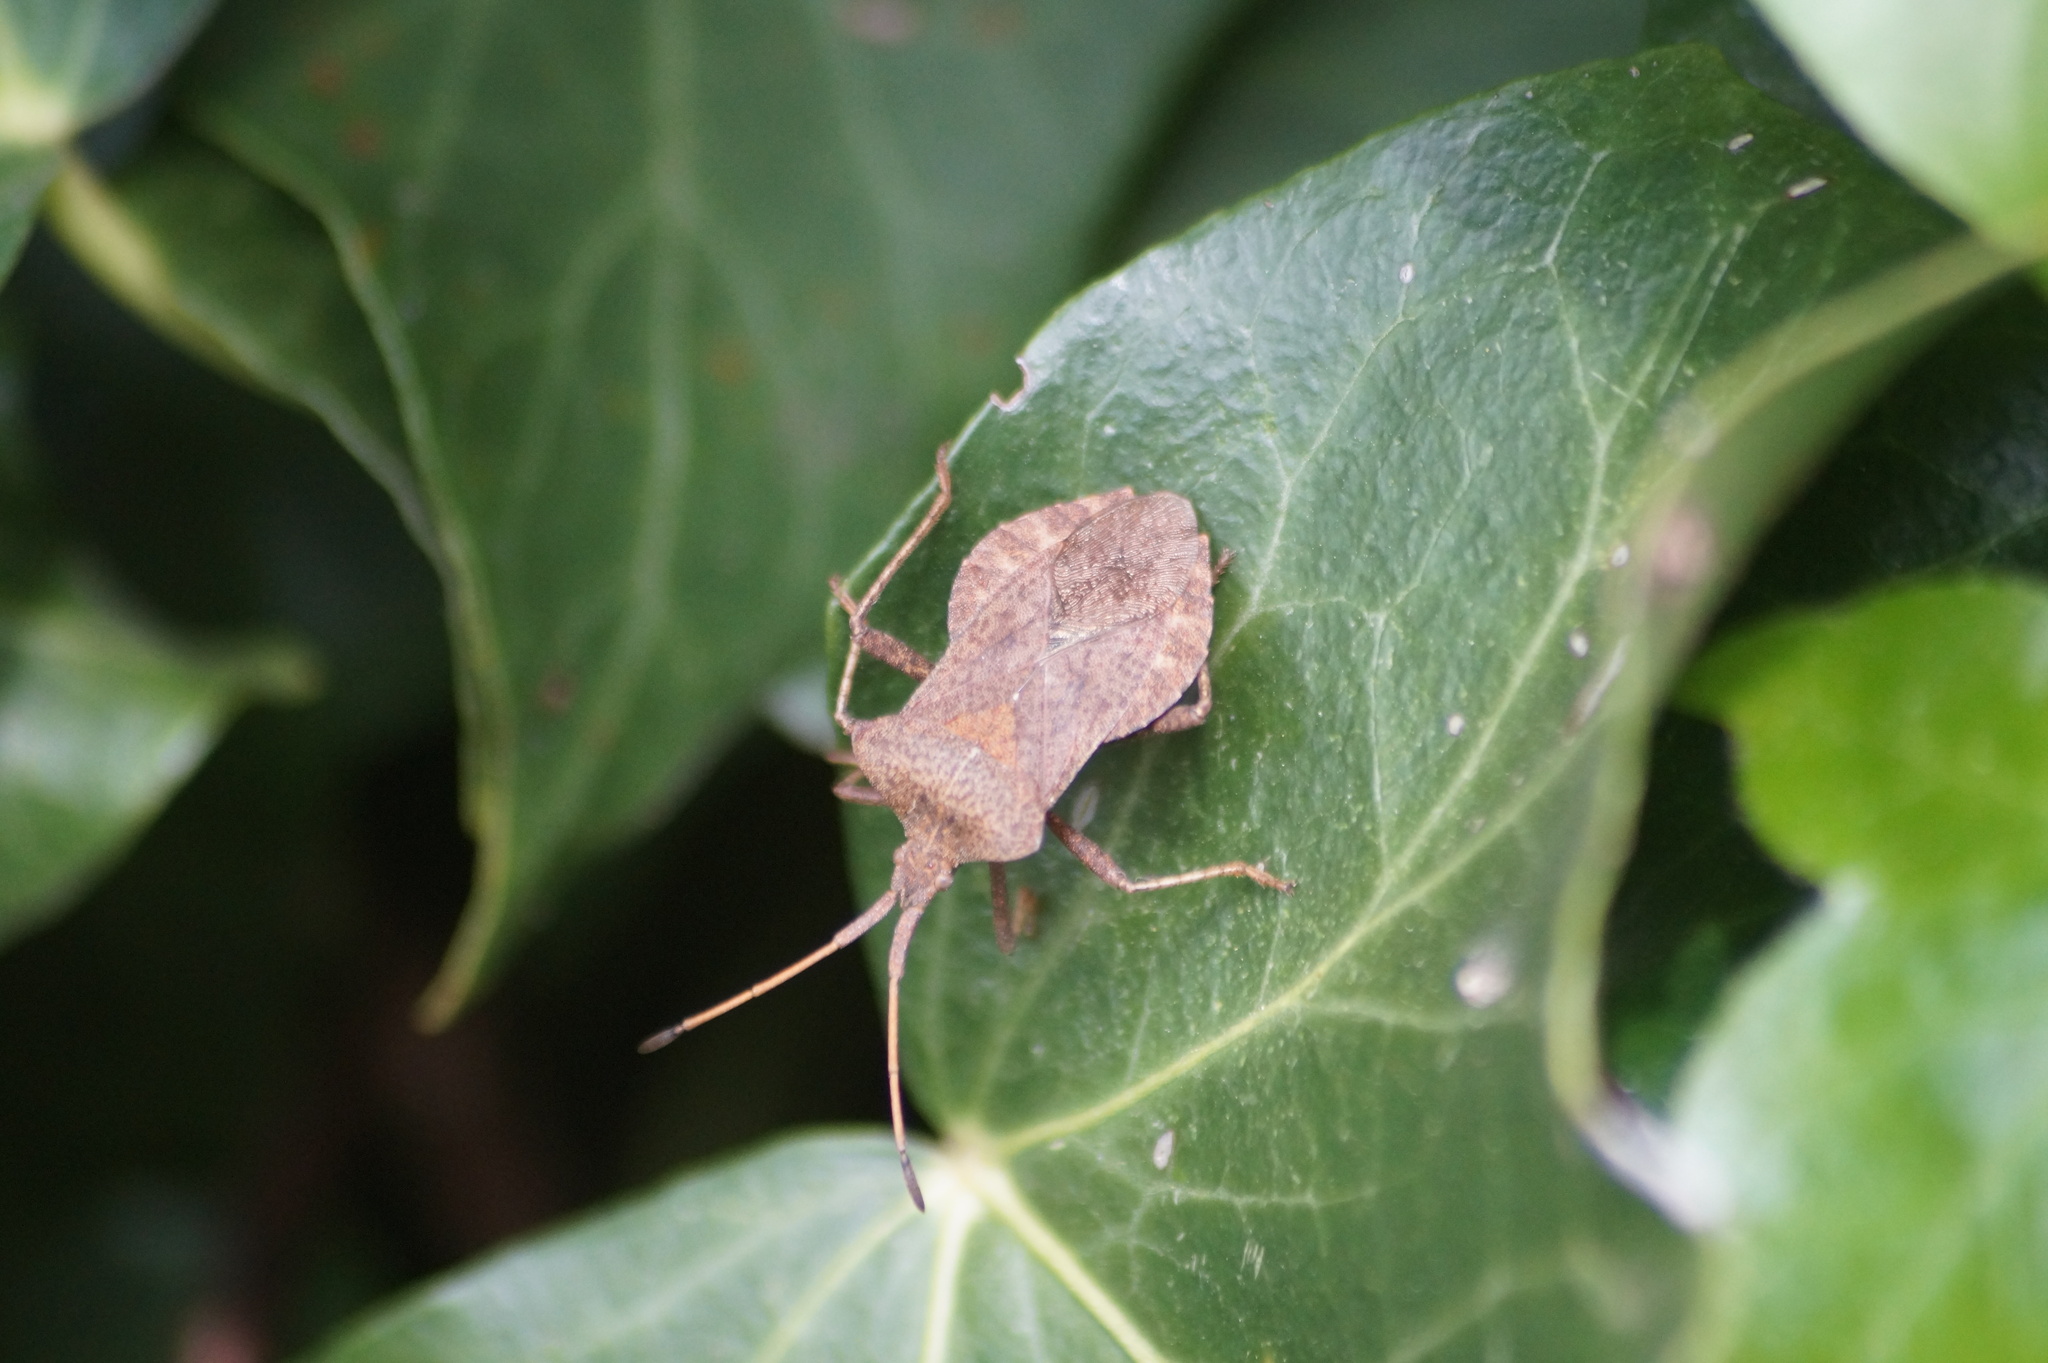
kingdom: Animalia
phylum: Arthropoda
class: Insecta
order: Hemiptera
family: Coreidae
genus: Coreus
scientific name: Coreus marginatus
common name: Dock bug
